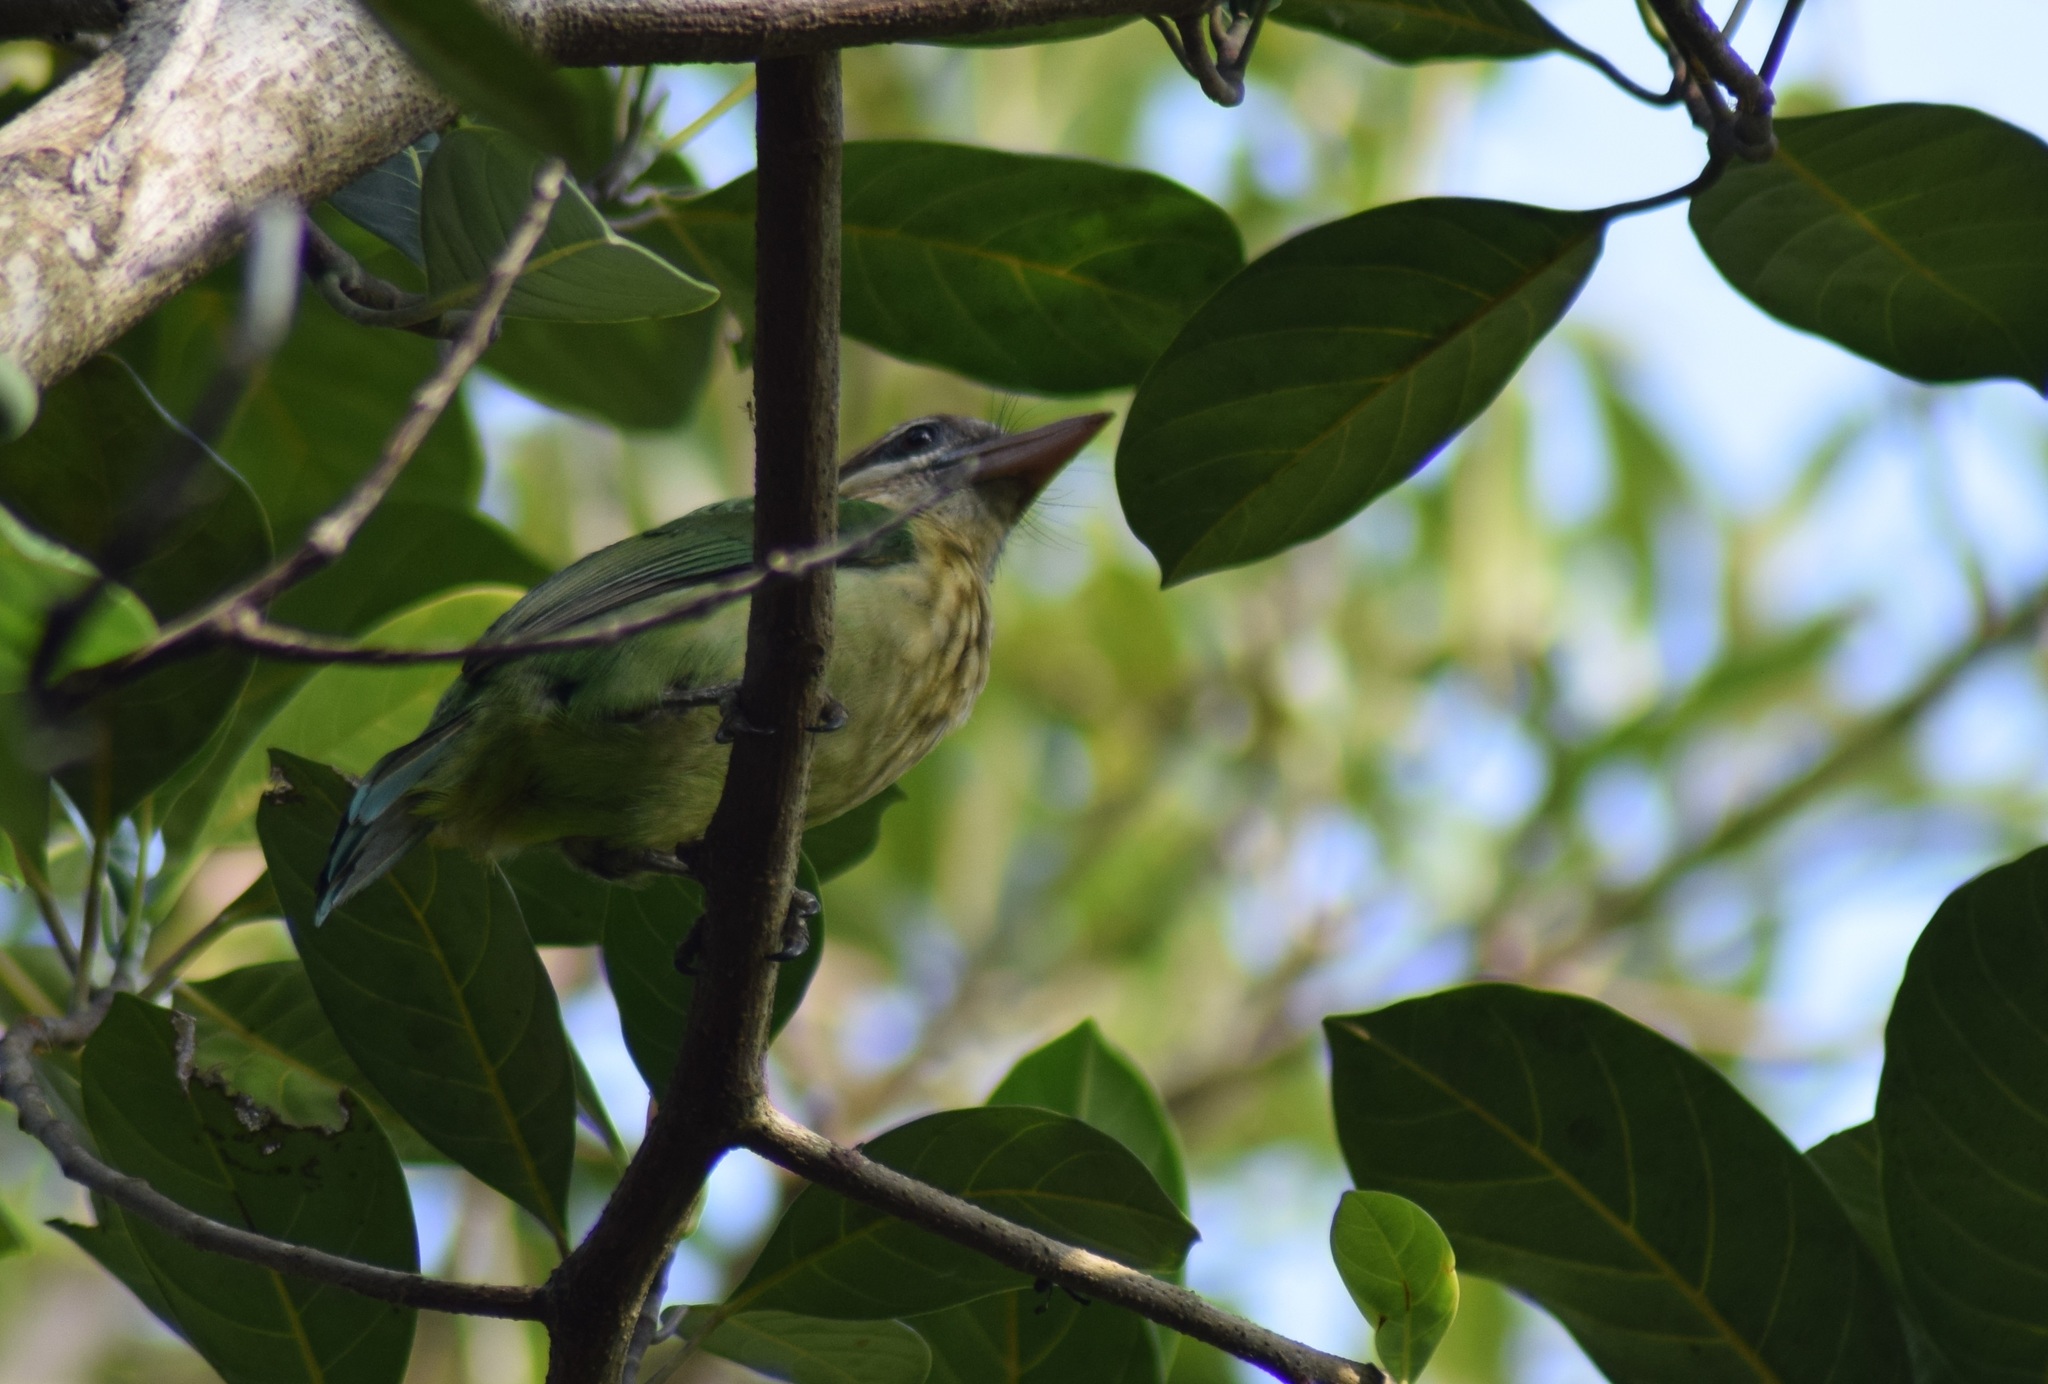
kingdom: Animalia
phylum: Chordata
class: Aves
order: Piciformes
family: Megalaimidae
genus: Psilopogon
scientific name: Psilopogon viridis
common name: White-cheeked barbet
